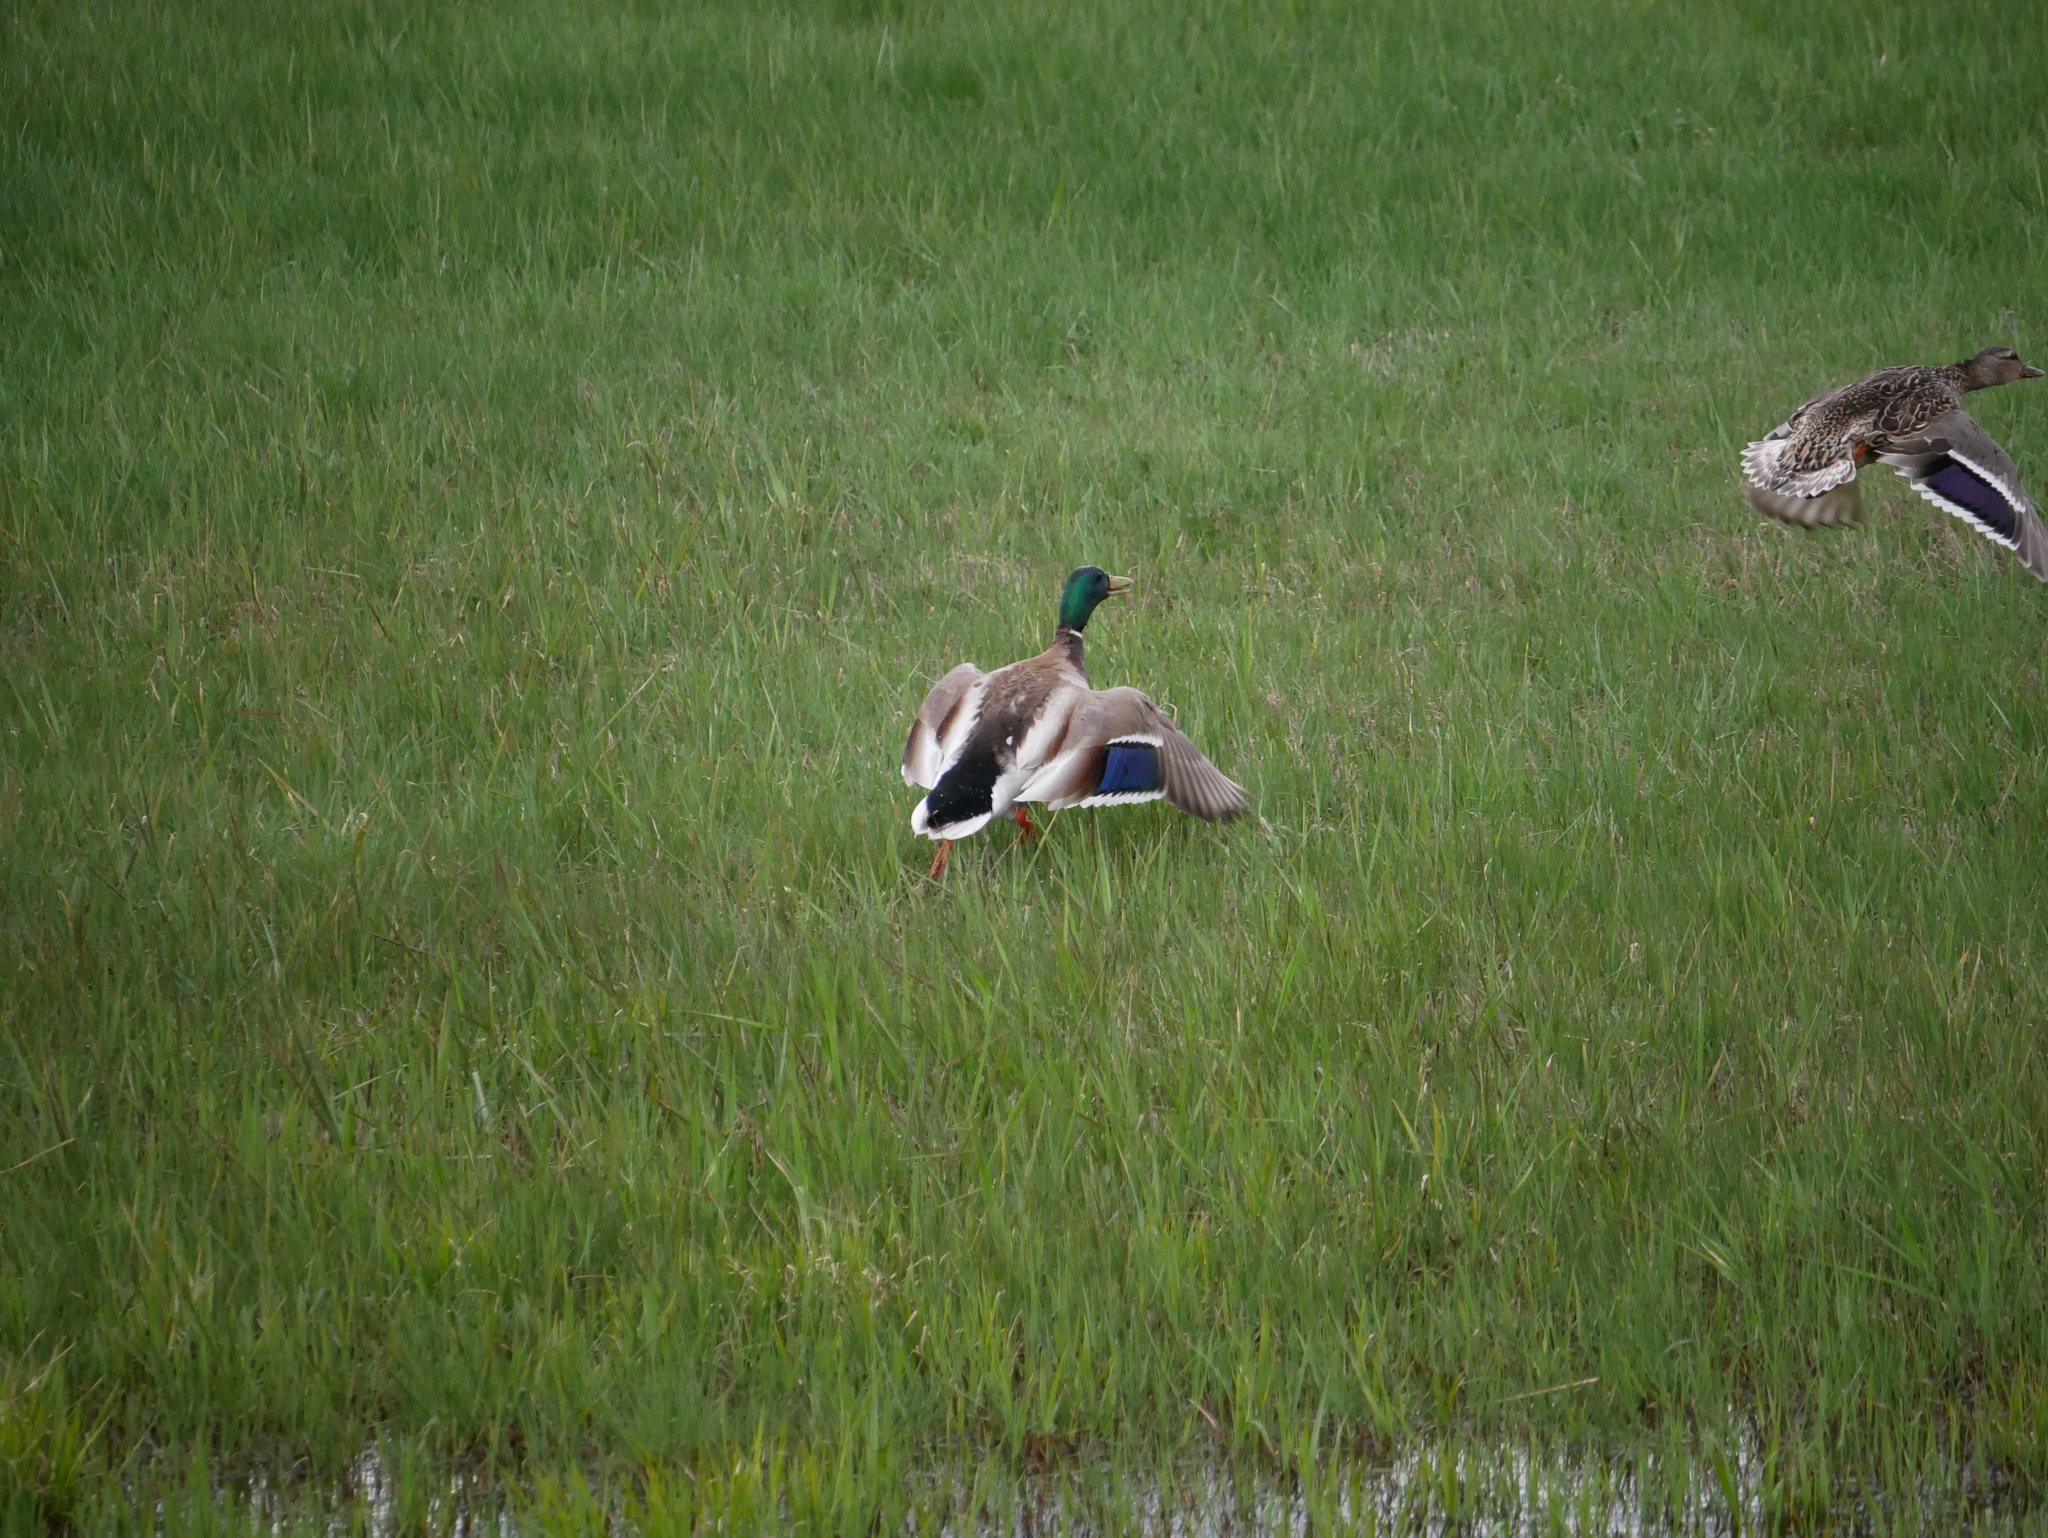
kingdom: Animalia
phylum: Chordata
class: Aves
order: Anseriformes
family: Anatidae
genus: Anas
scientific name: Anas platyrhynchos
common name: Mallard
